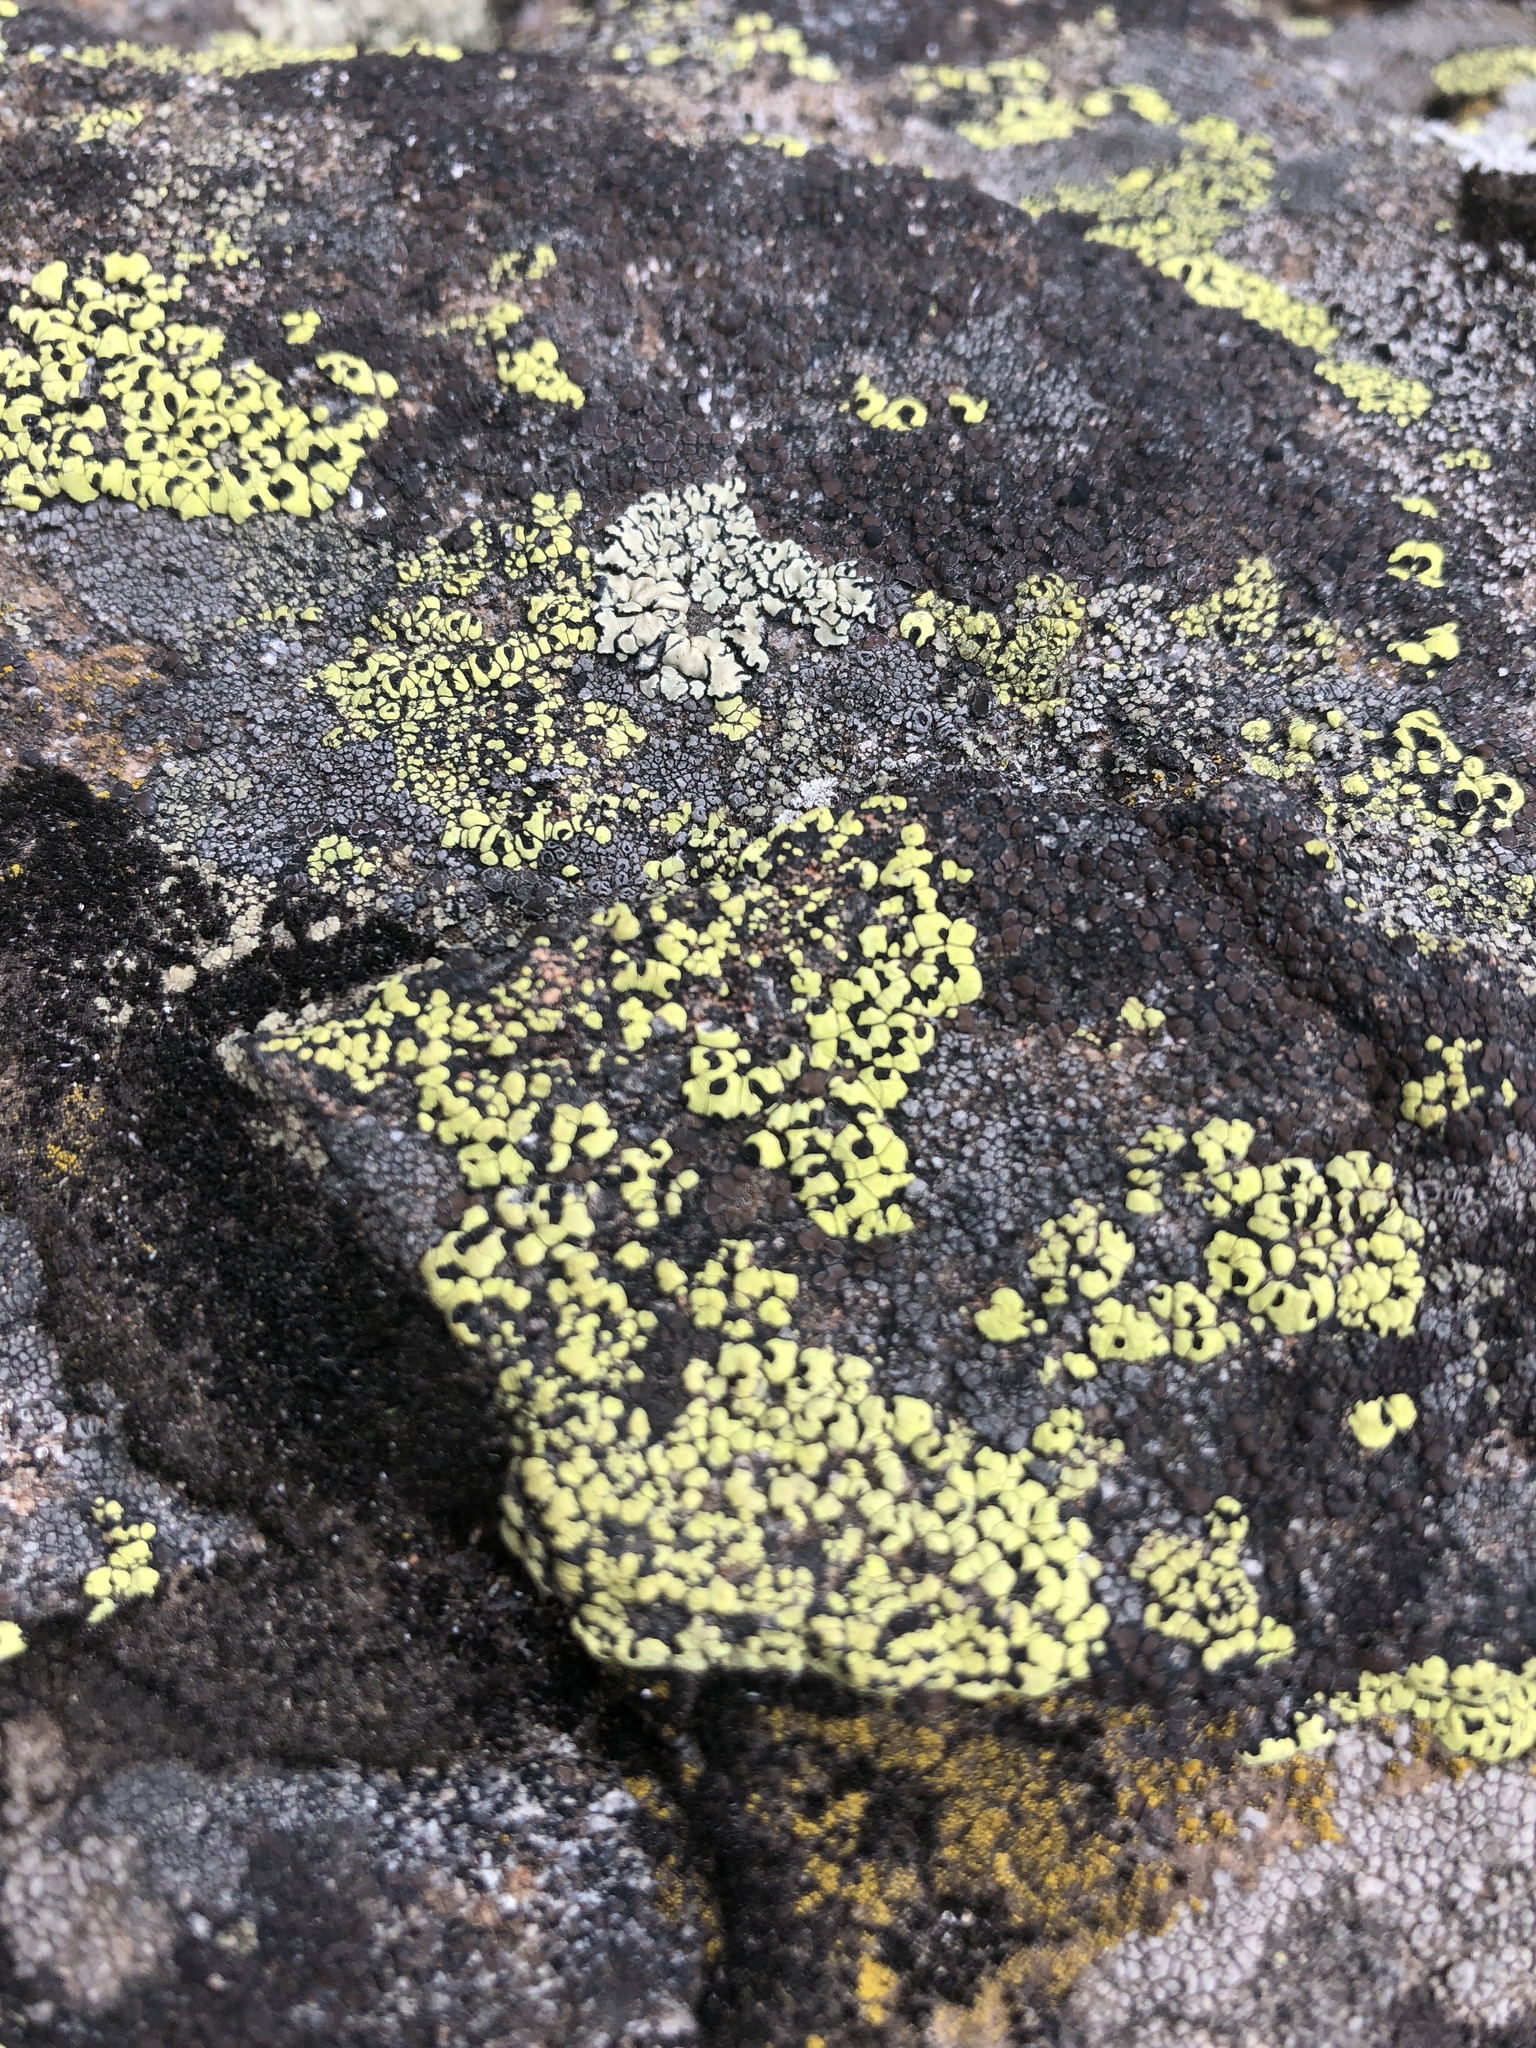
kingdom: Fungi
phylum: Ascomycota
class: Lecanoromycetes
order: Rhizocarpales
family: Rhizocarpaceae
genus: Rhizocarpon
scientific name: Rhizocarpon geographicum
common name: Yellow map lichen
